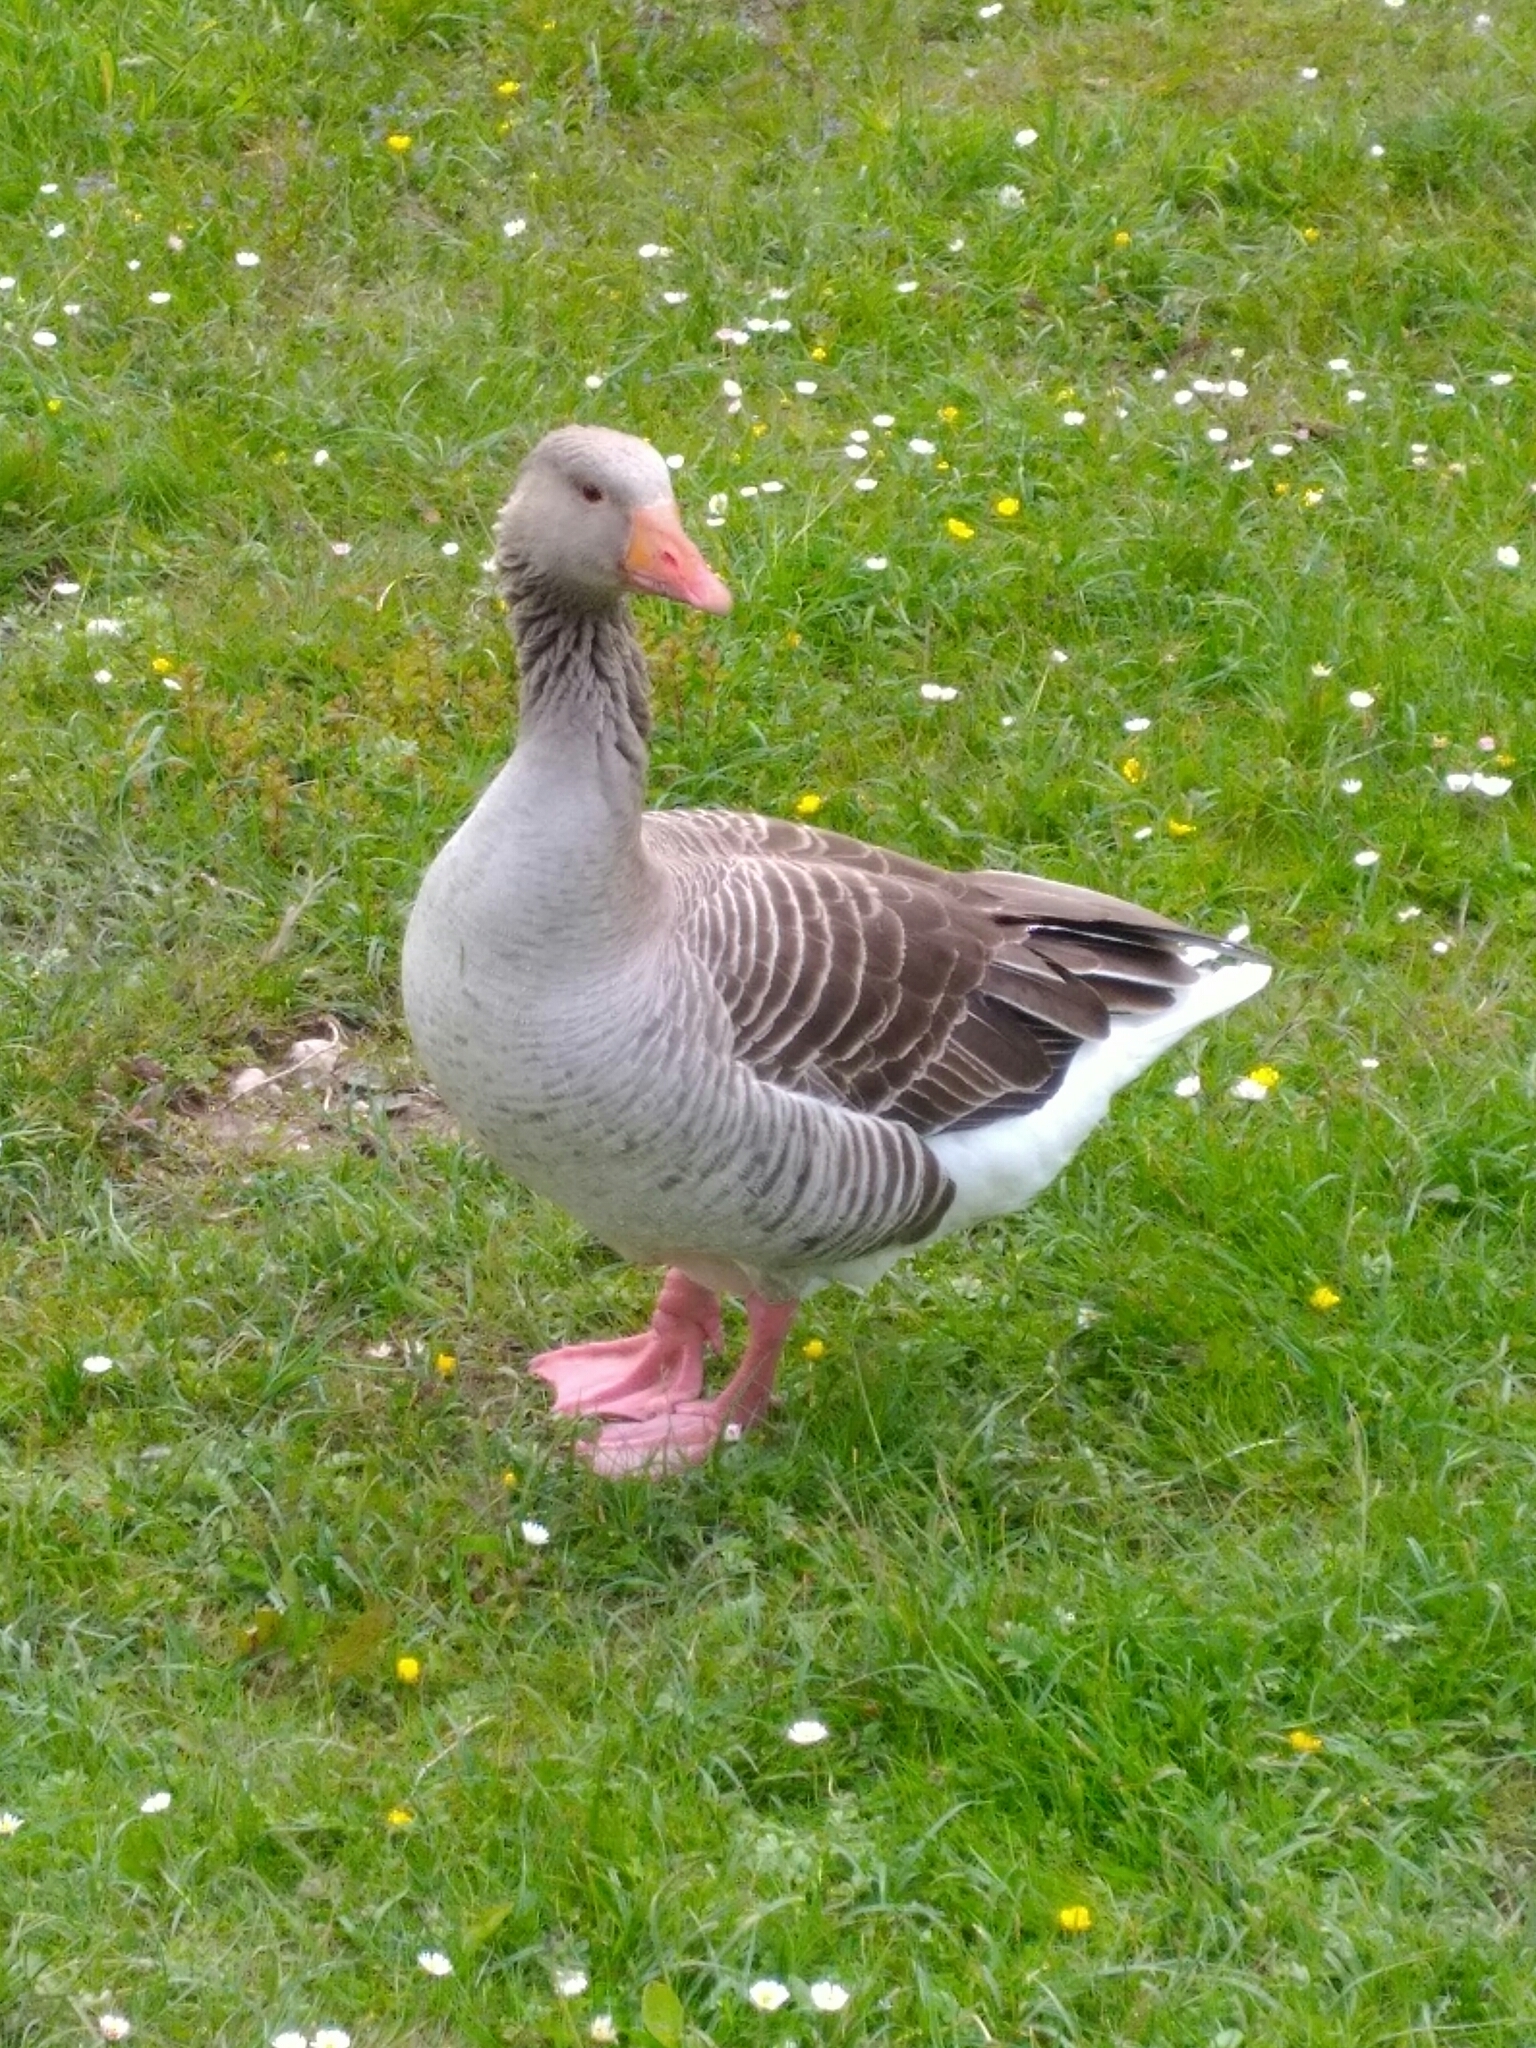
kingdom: Animalia
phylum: Chordata
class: Aves
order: Anseriformes
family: Anatidae
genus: Anser
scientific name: Anser anser
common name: Greylag goose
